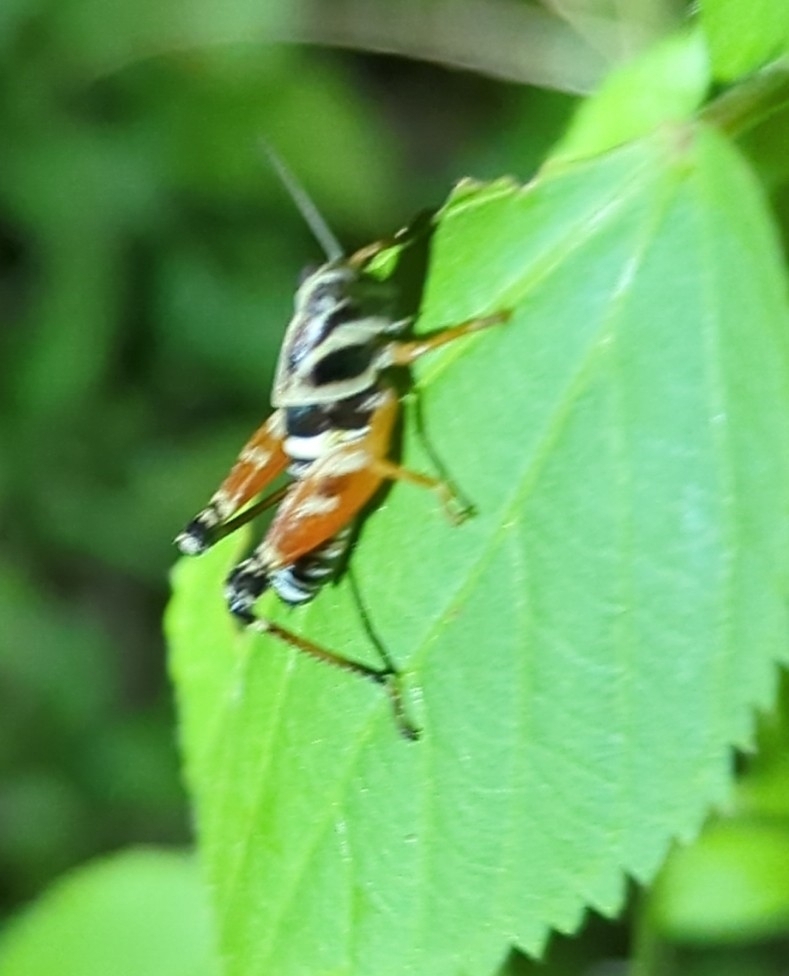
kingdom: Animalia
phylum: Arthropoda
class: Insecta
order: Orthoptera
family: Acrididae
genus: Aidemona
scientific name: Aidemona azteca
